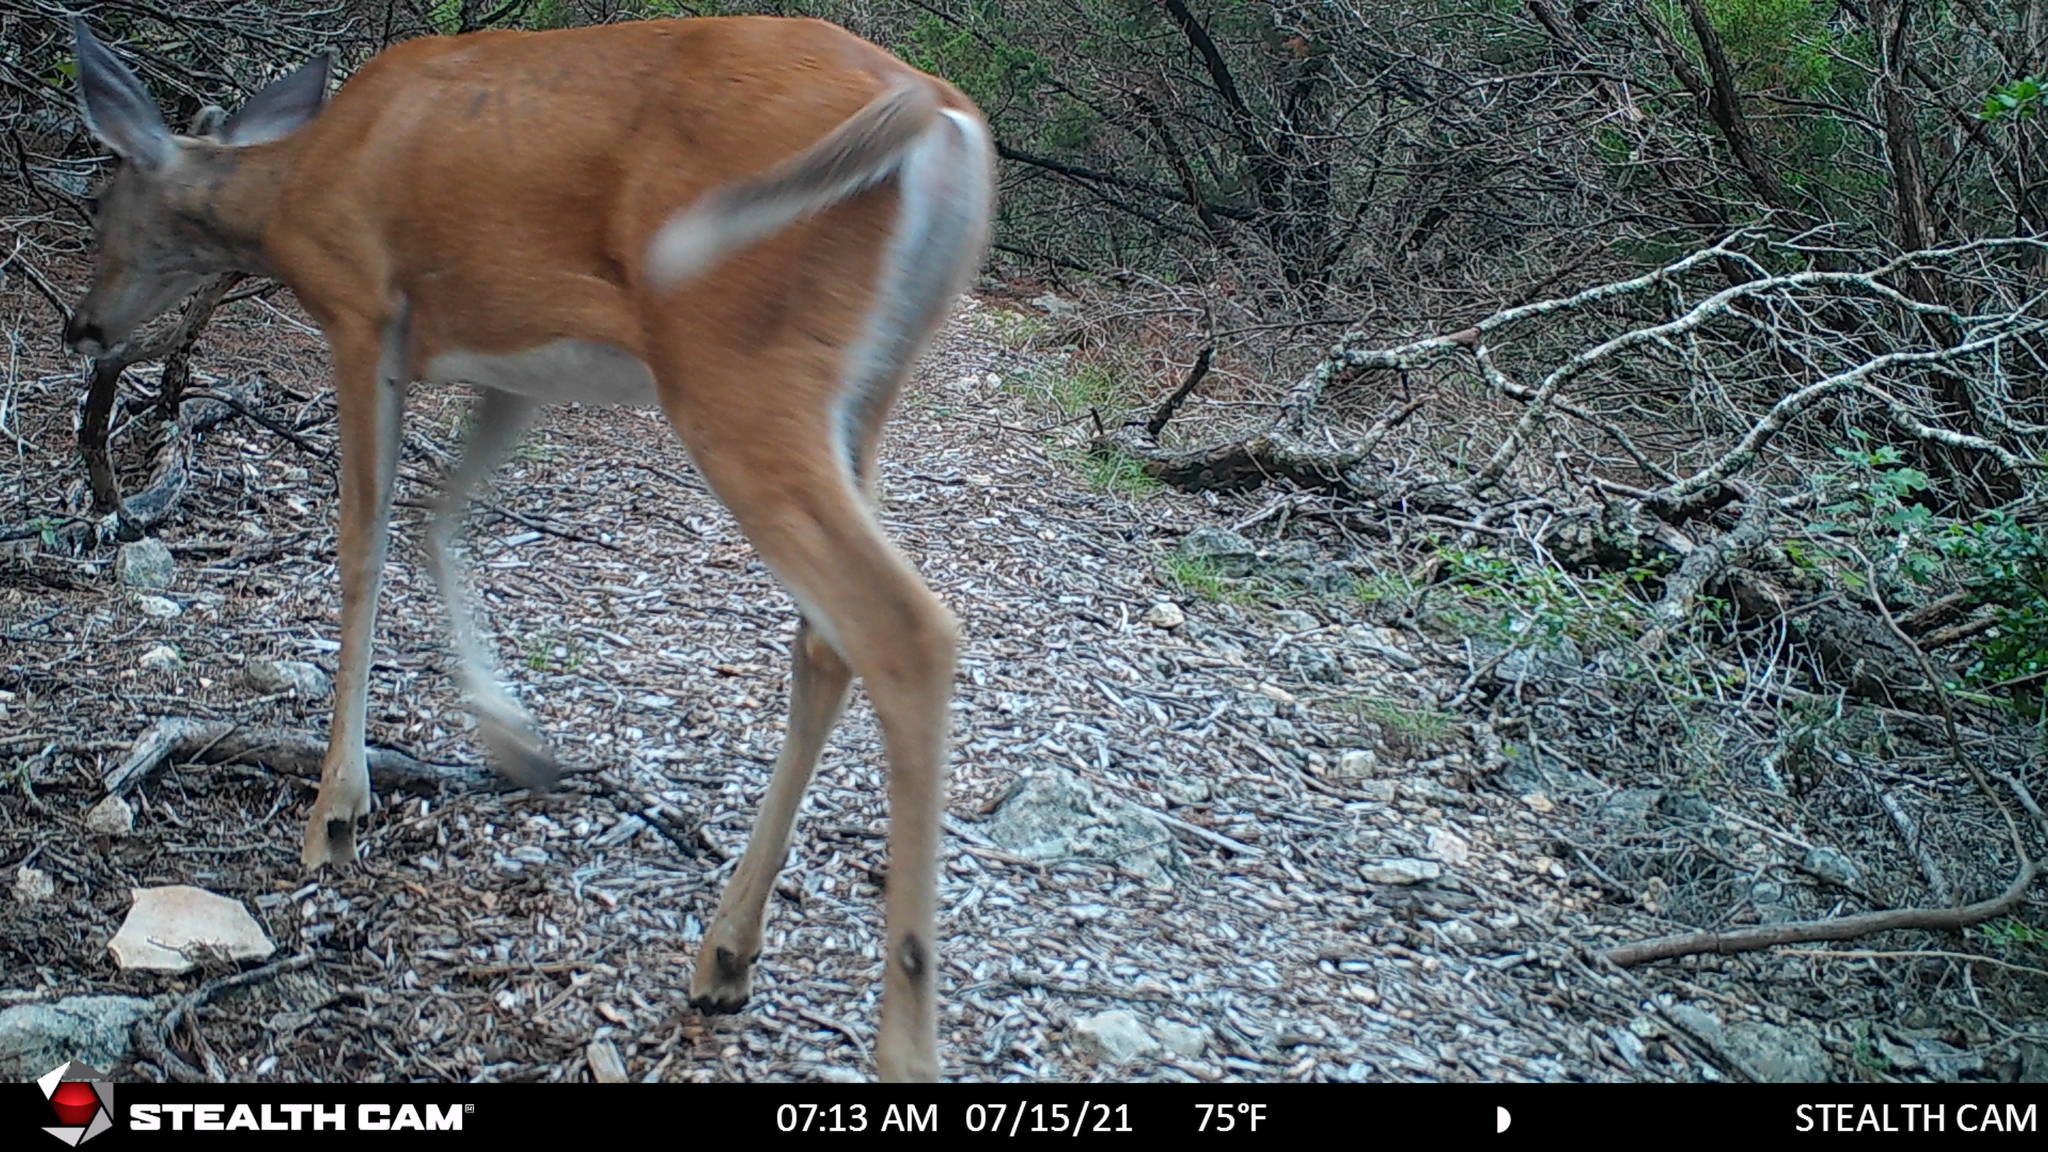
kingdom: Animalia
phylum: Chordata
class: Mammalia
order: Artiodactyla
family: Cervidae
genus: Odocoileus
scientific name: Odocoileus virginianus
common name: White-tailed deer
